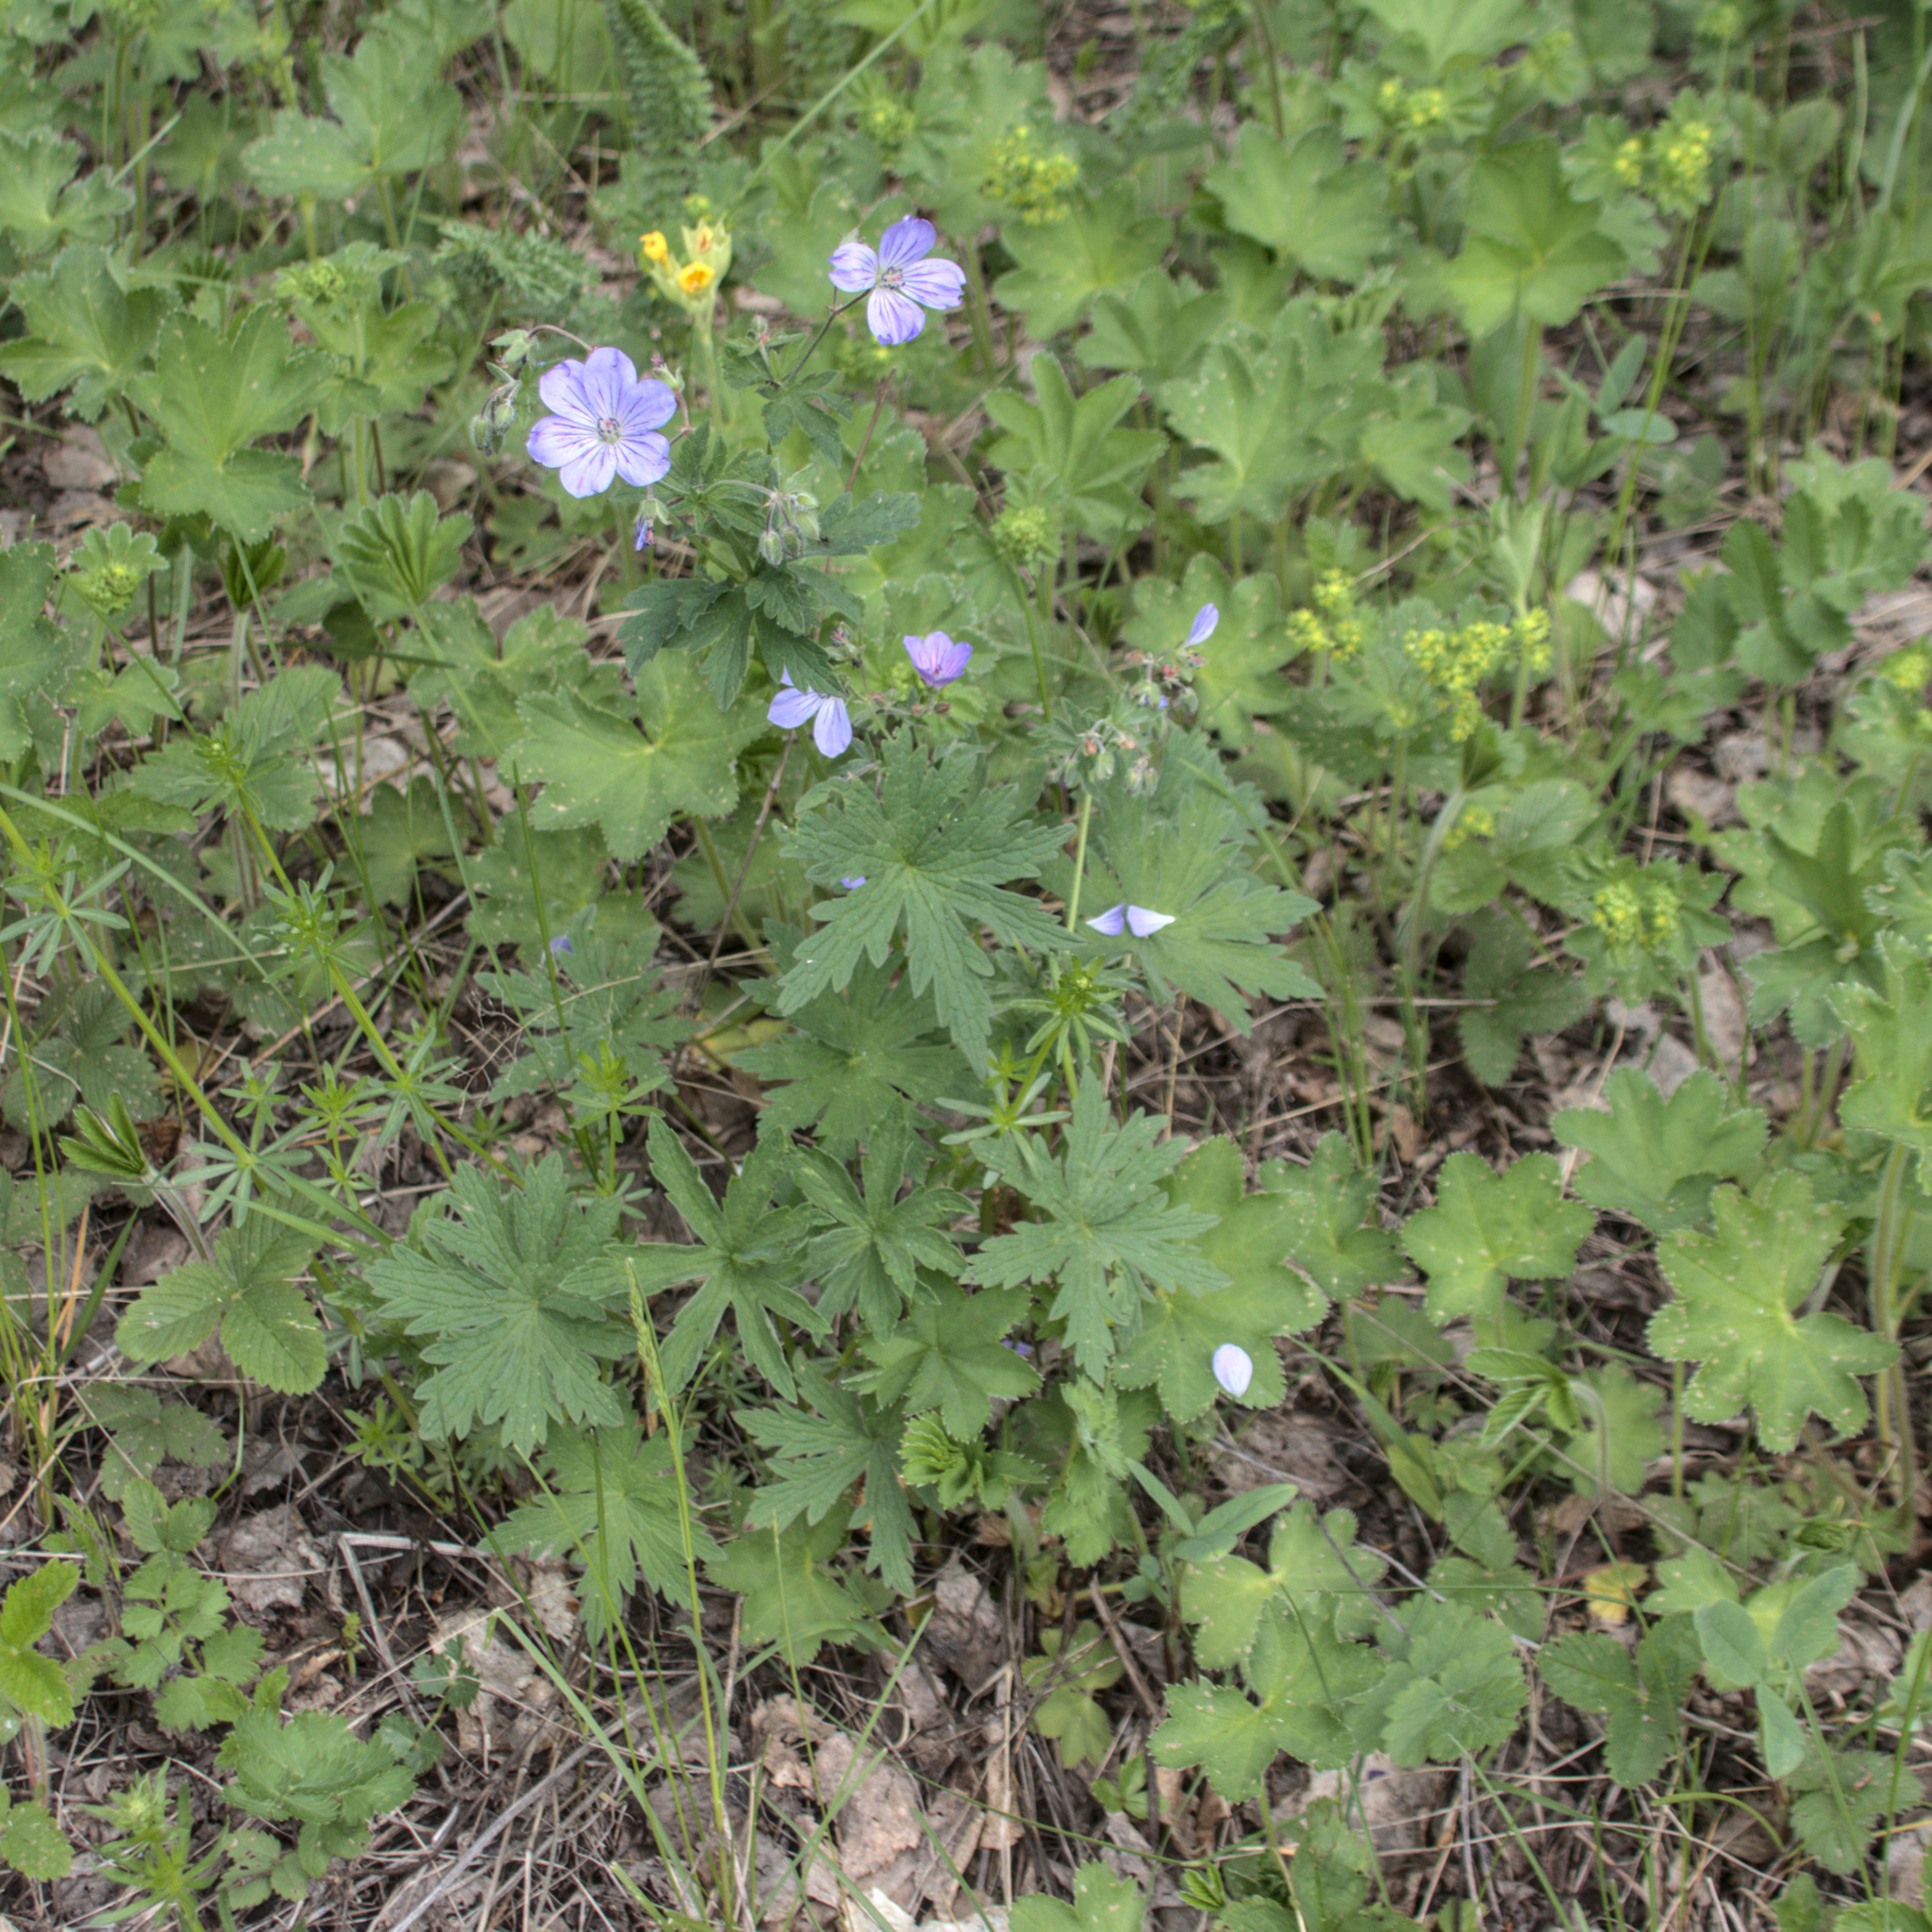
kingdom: Plantae
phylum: Tracheophyta
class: Magnoliopsida
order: Geraniales
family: Geraniaceae
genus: Geranium
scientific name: Geranium sylvaticum
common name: Wood crane's-bill
